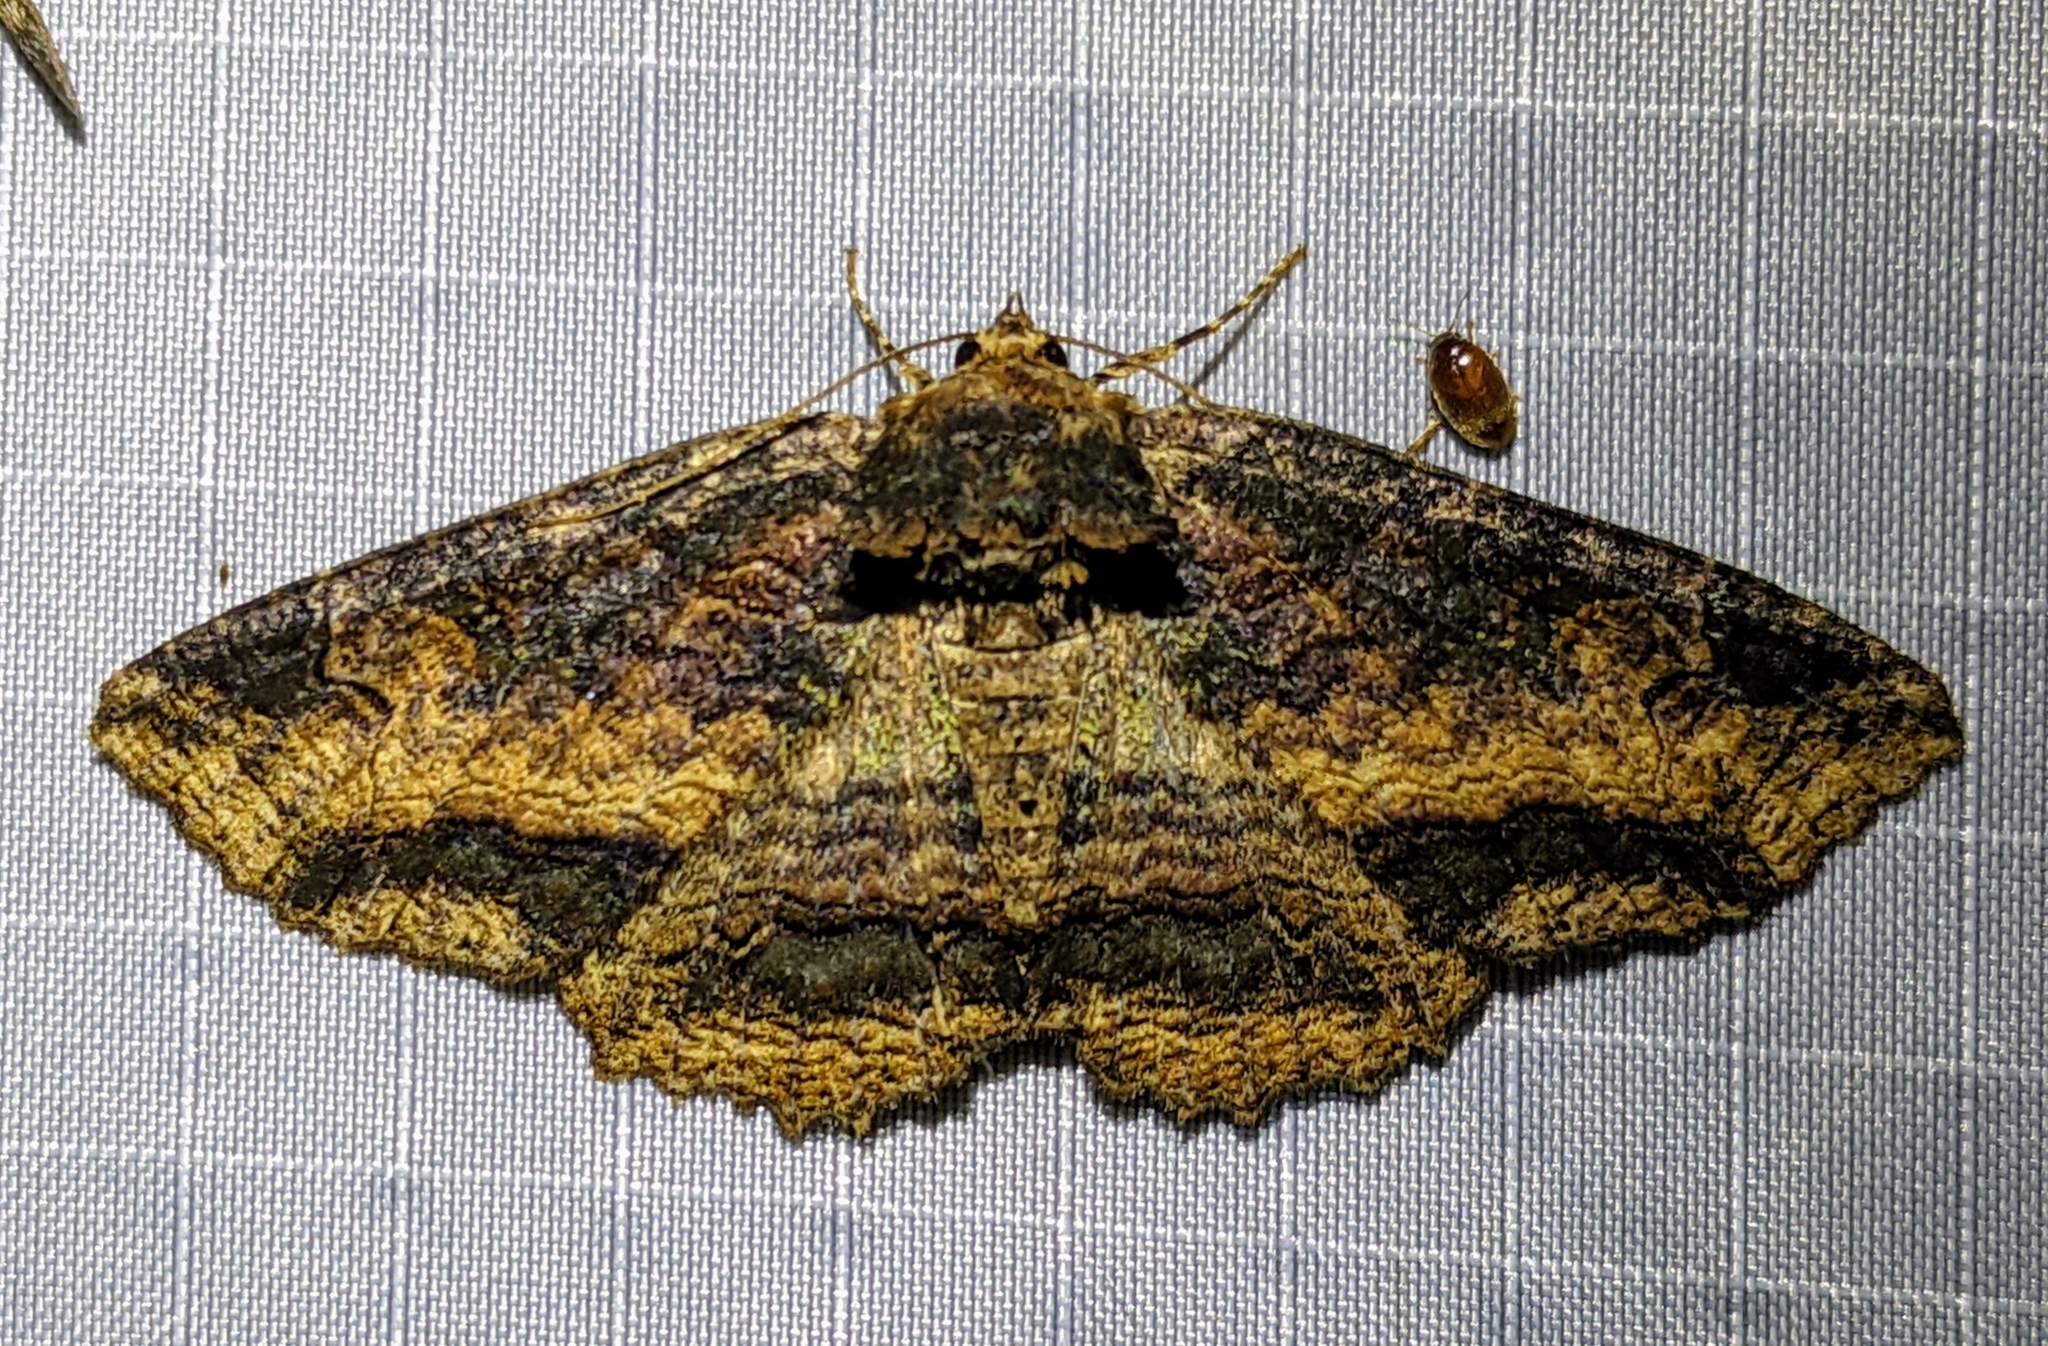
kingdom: Animalia
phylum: Arthropoda
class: Insecta
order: Lepidoptera
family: Erebidae
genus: Zale
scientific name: Zale minerea
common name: Colorful zale moth
